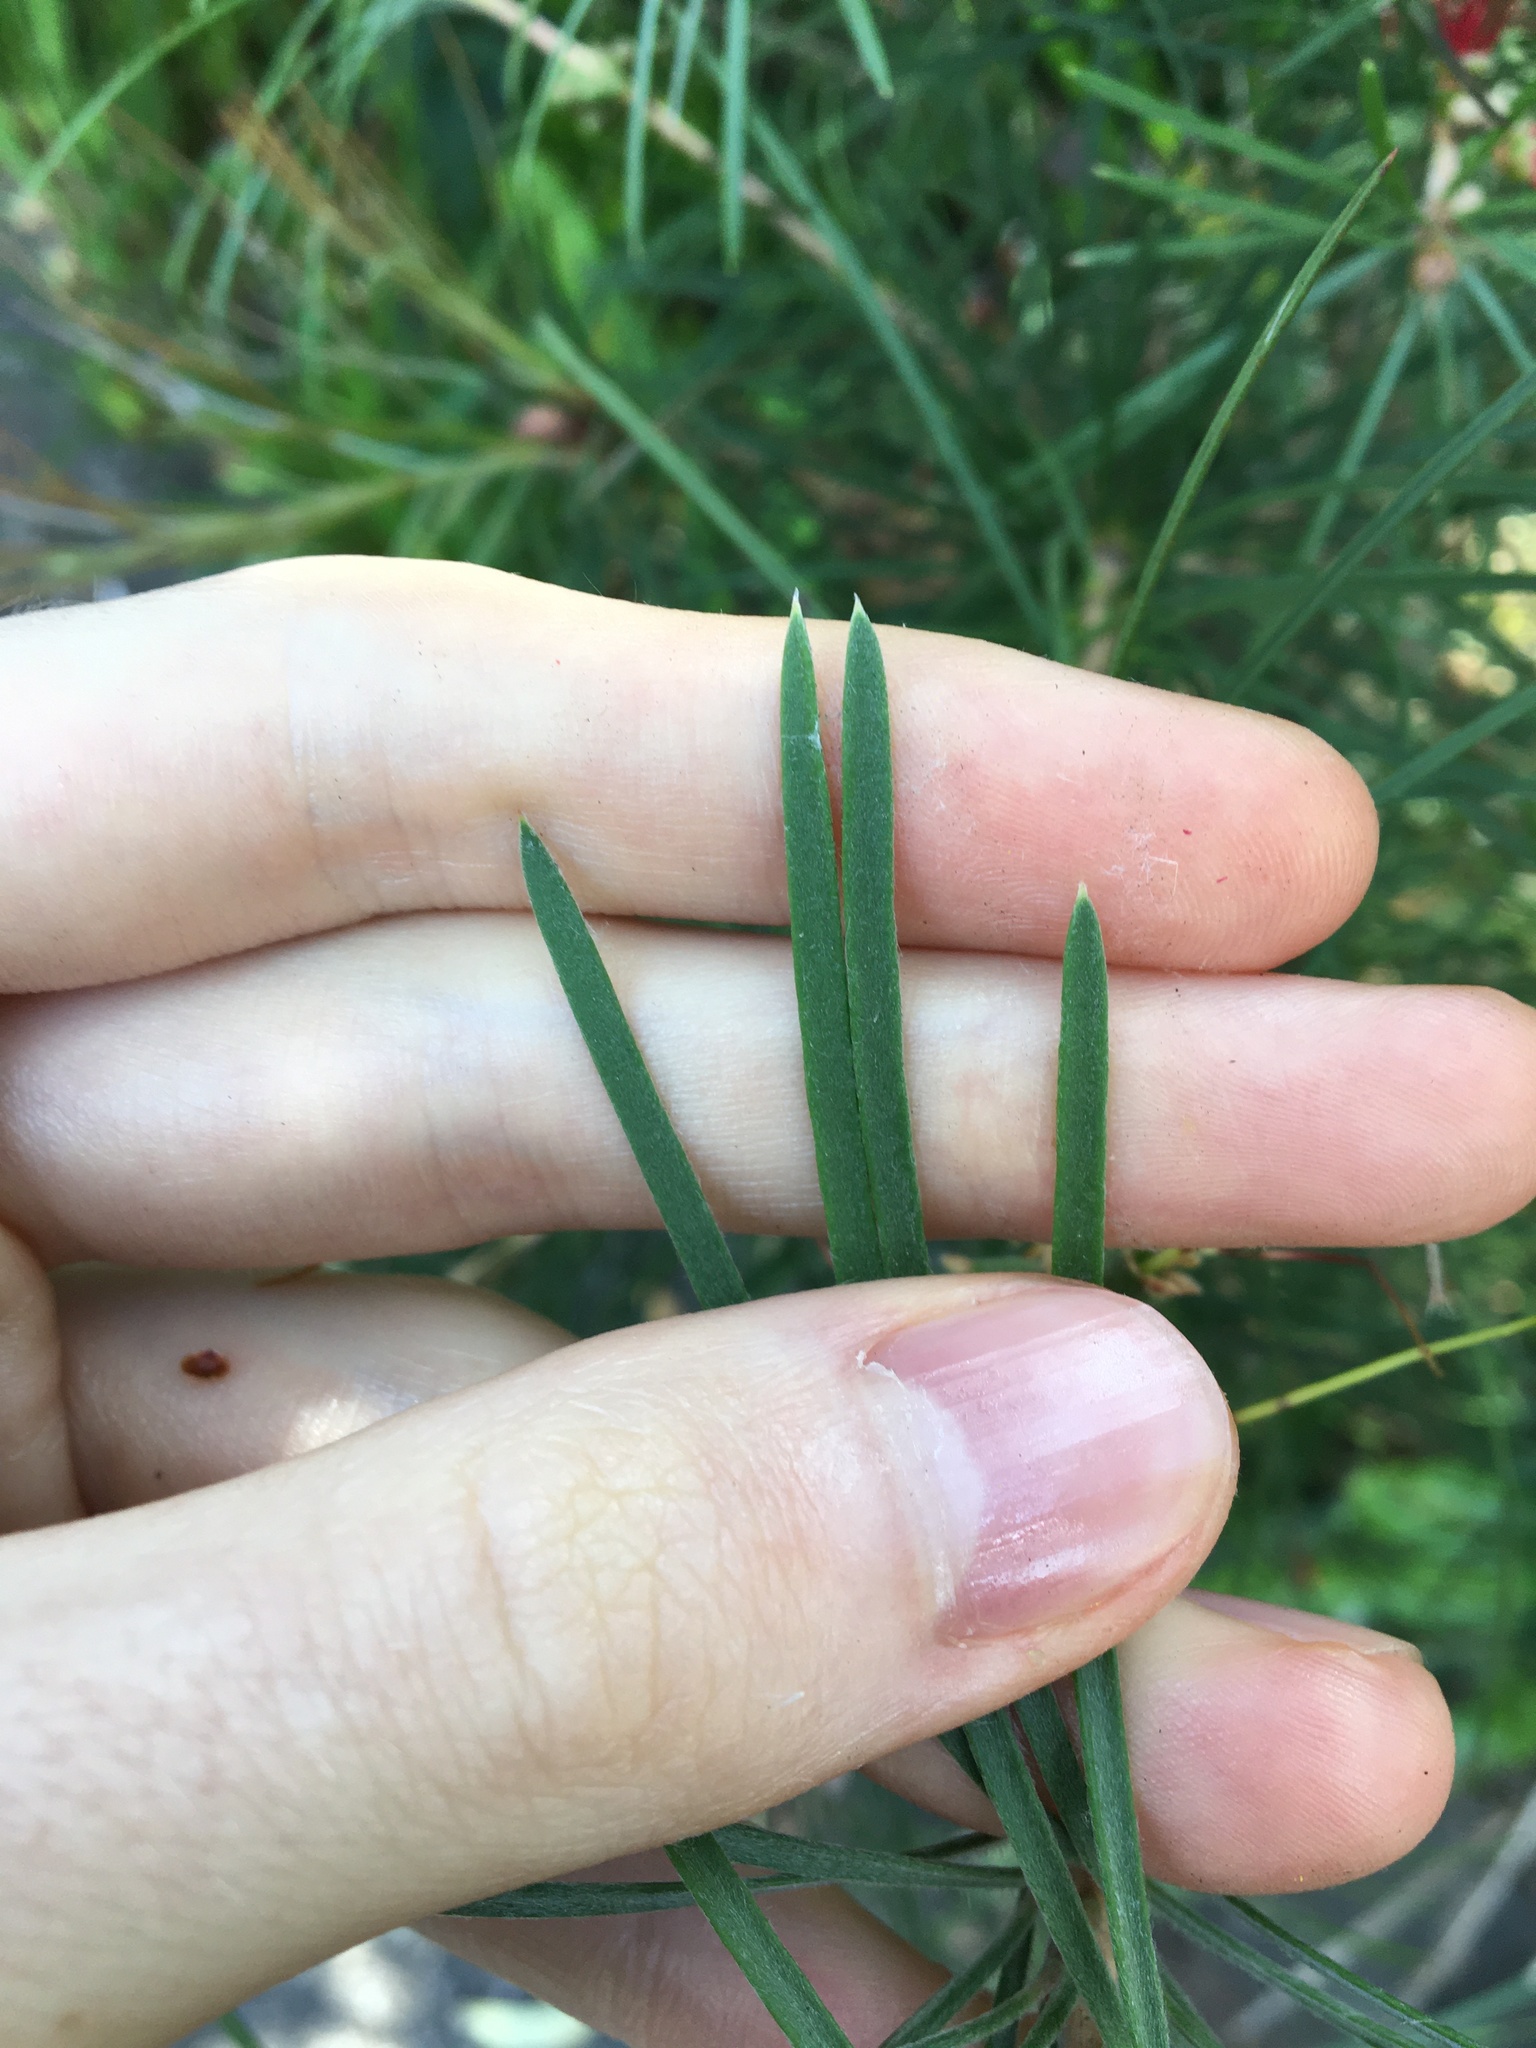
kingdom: Plantae
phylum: Tracheophyta
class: Magnoliopsida
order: Myrtales
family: Myrtaceae
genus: Callistemon
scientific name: Callistemon linearis
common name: Narrow-leaf bottlebrush
